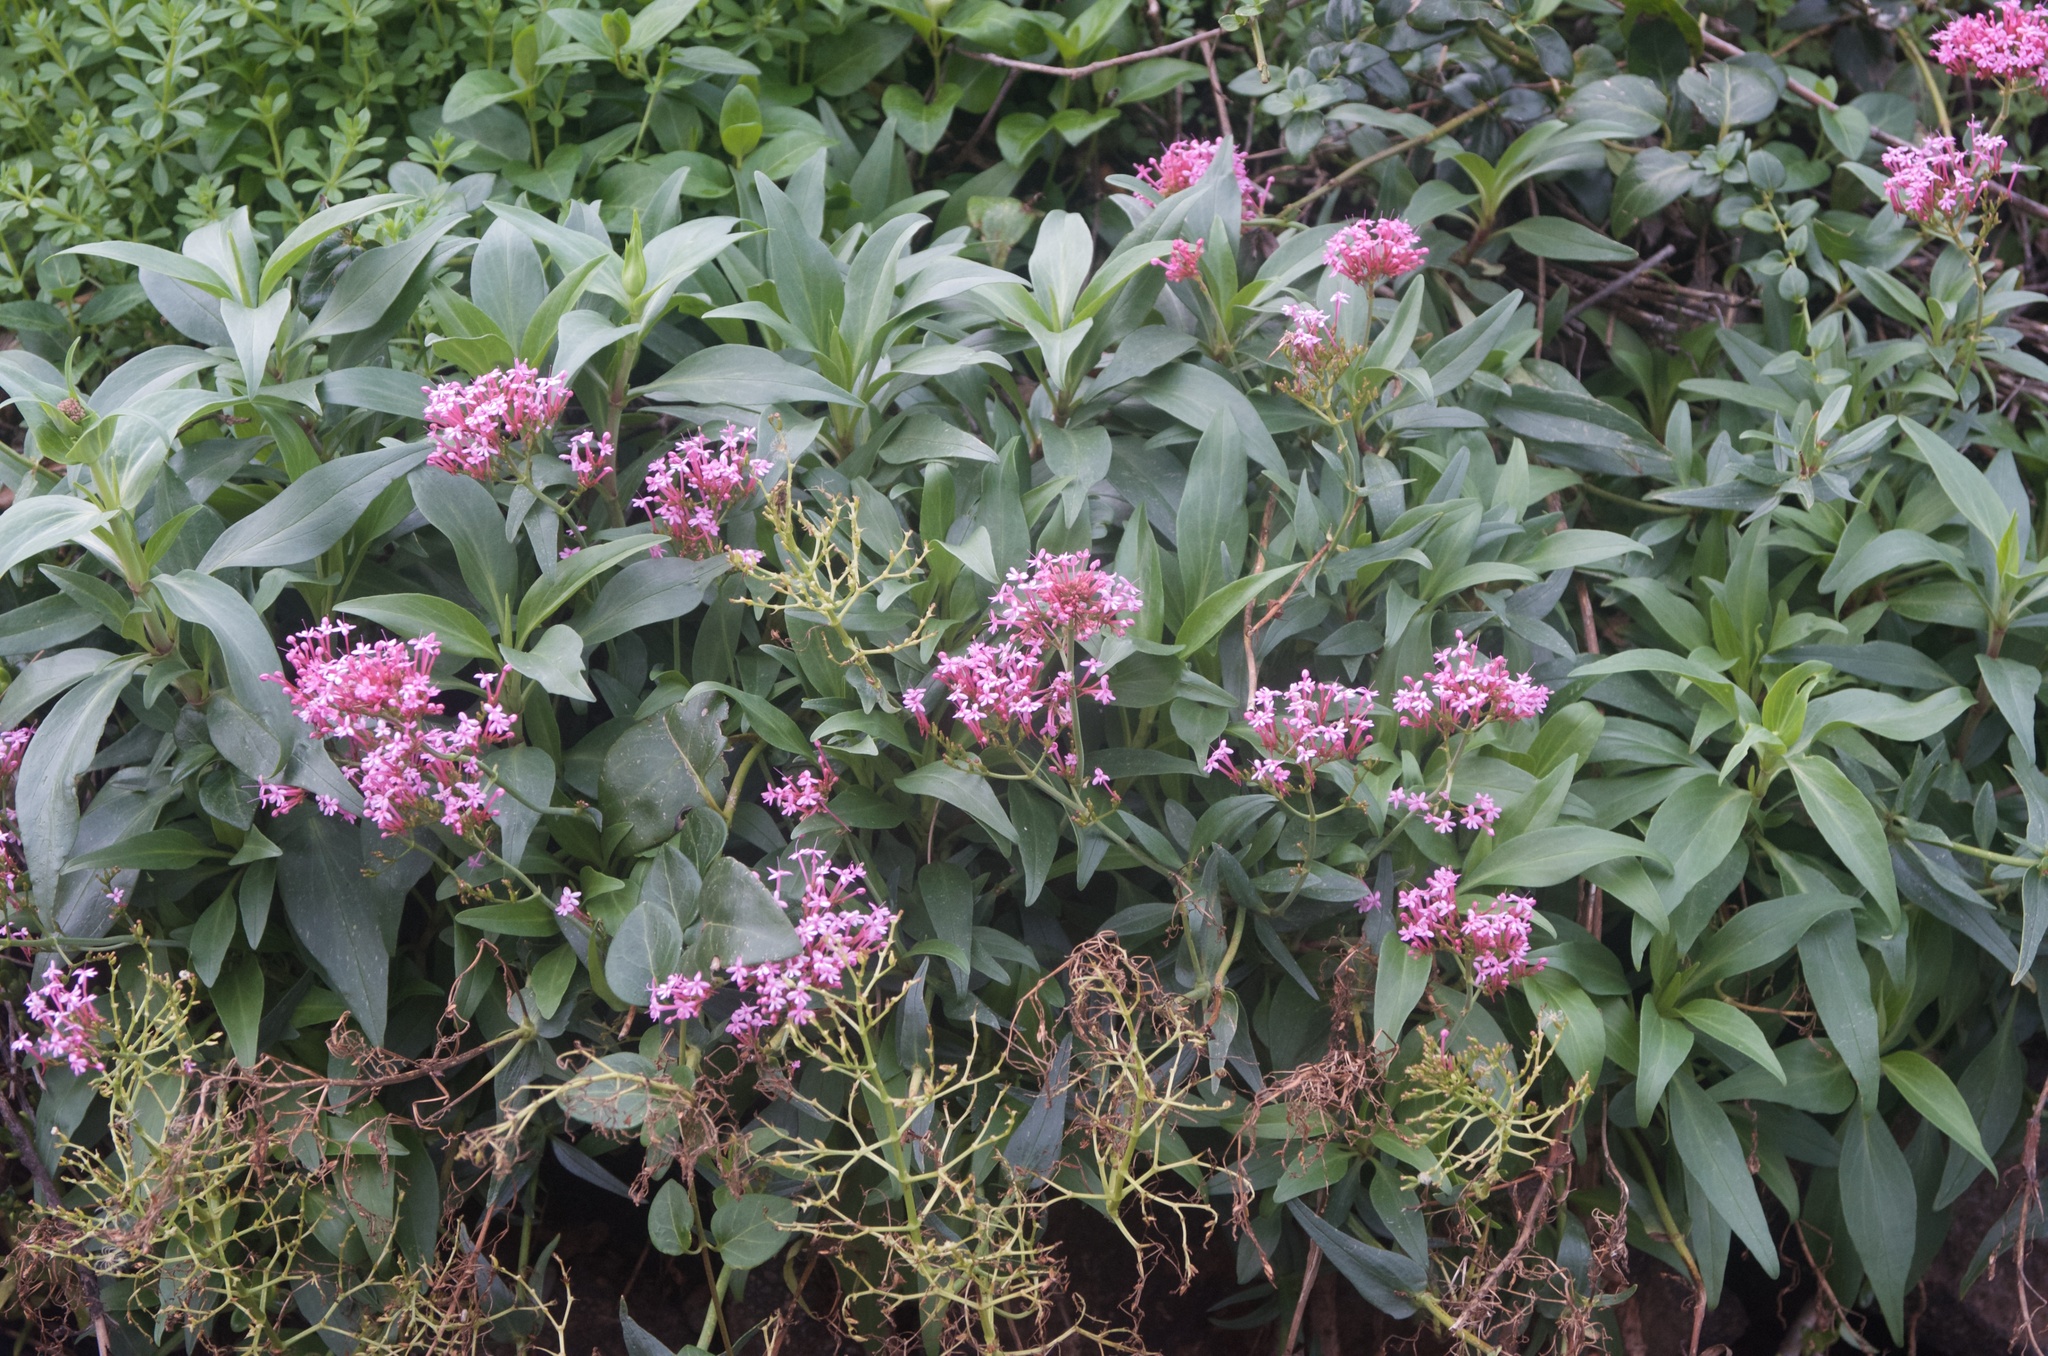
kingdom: Plantae
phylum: Tracheophyta
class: Magnoliopsida
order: Dipsacales
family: Caprifoliaceae
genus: Centranthus
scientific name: Centranthus ruber
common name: Red valerian
